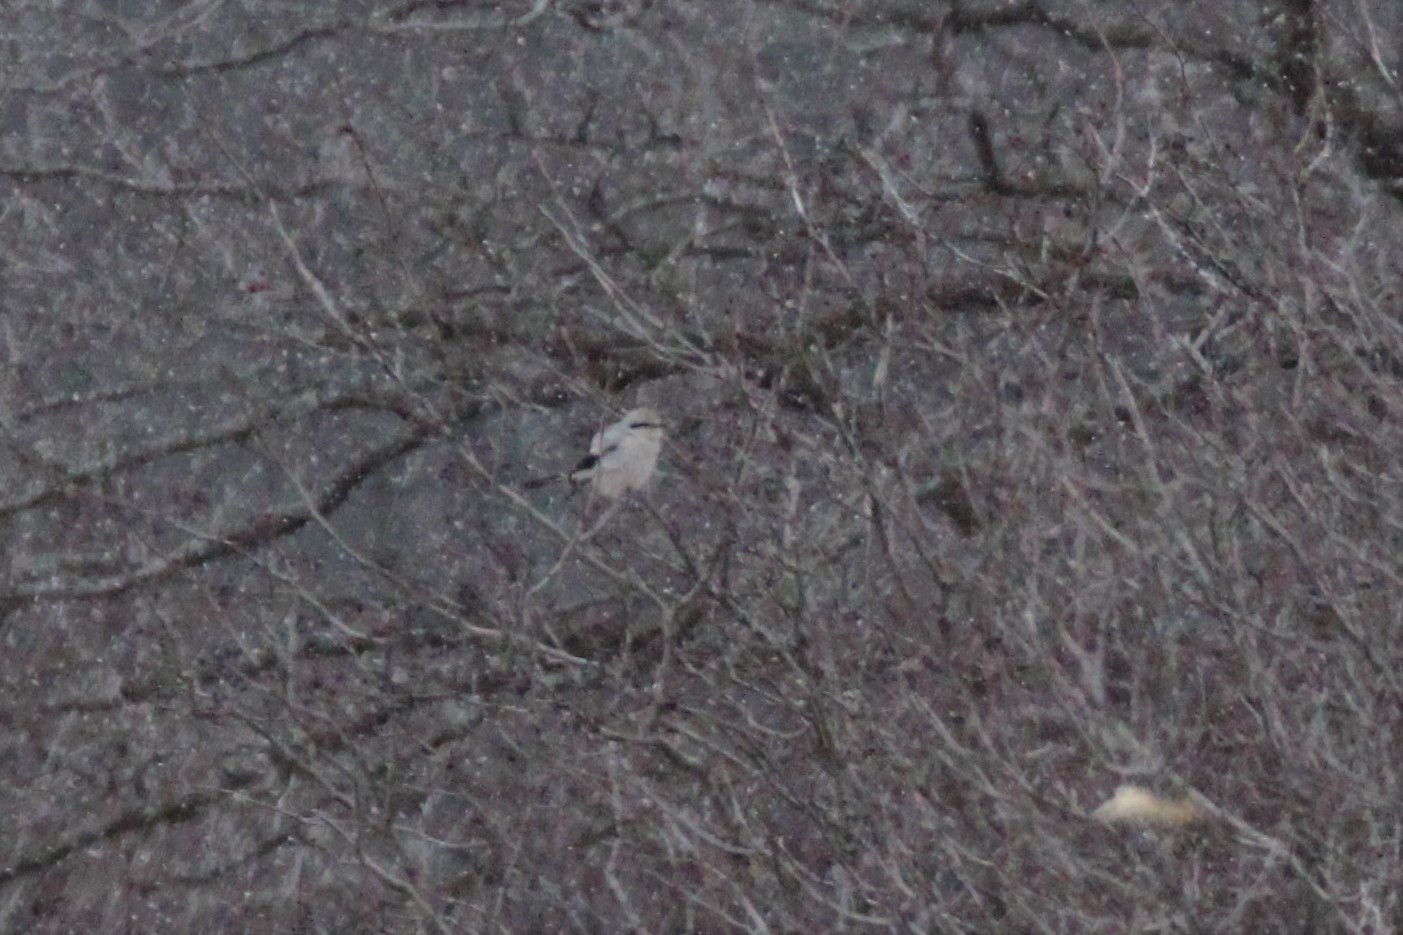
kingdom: Animalia
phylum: Chordata
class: Aves
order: Passeriformes
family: Laniidae
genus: Lanius
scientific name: Lanius borealis
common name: Northern shrike
